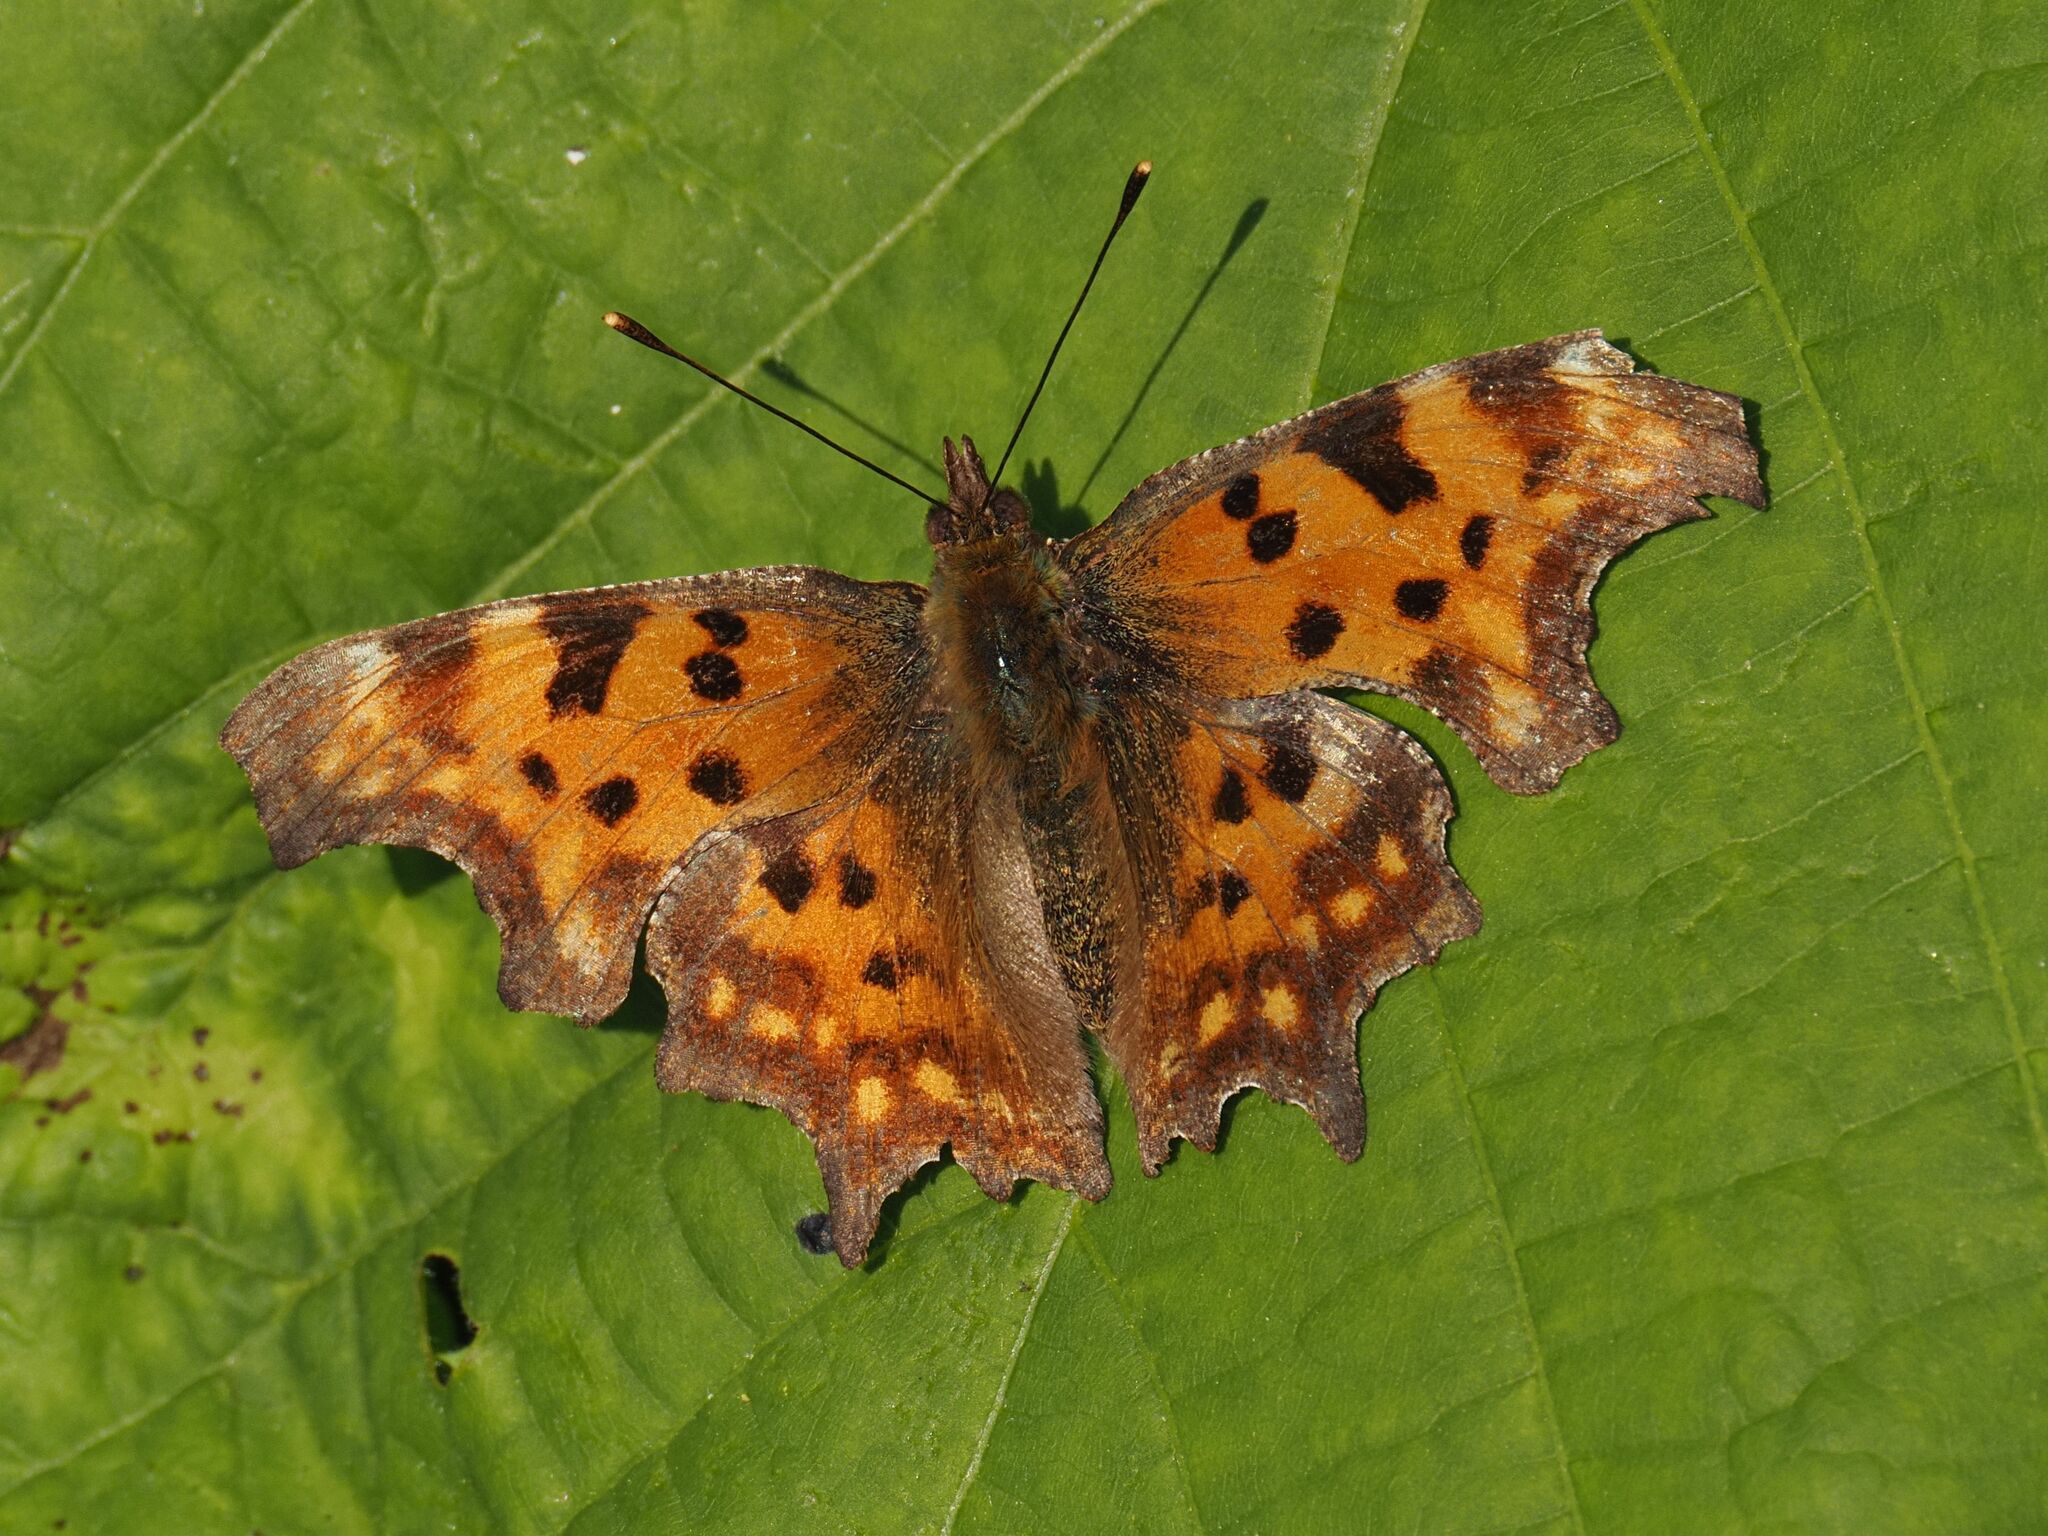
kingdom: Animalia
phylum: Arthropoda
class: Insecta
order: Lepidoptera
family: Nymphalidae
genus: Polygonia
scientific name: Polygonia c-album
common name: Comma
